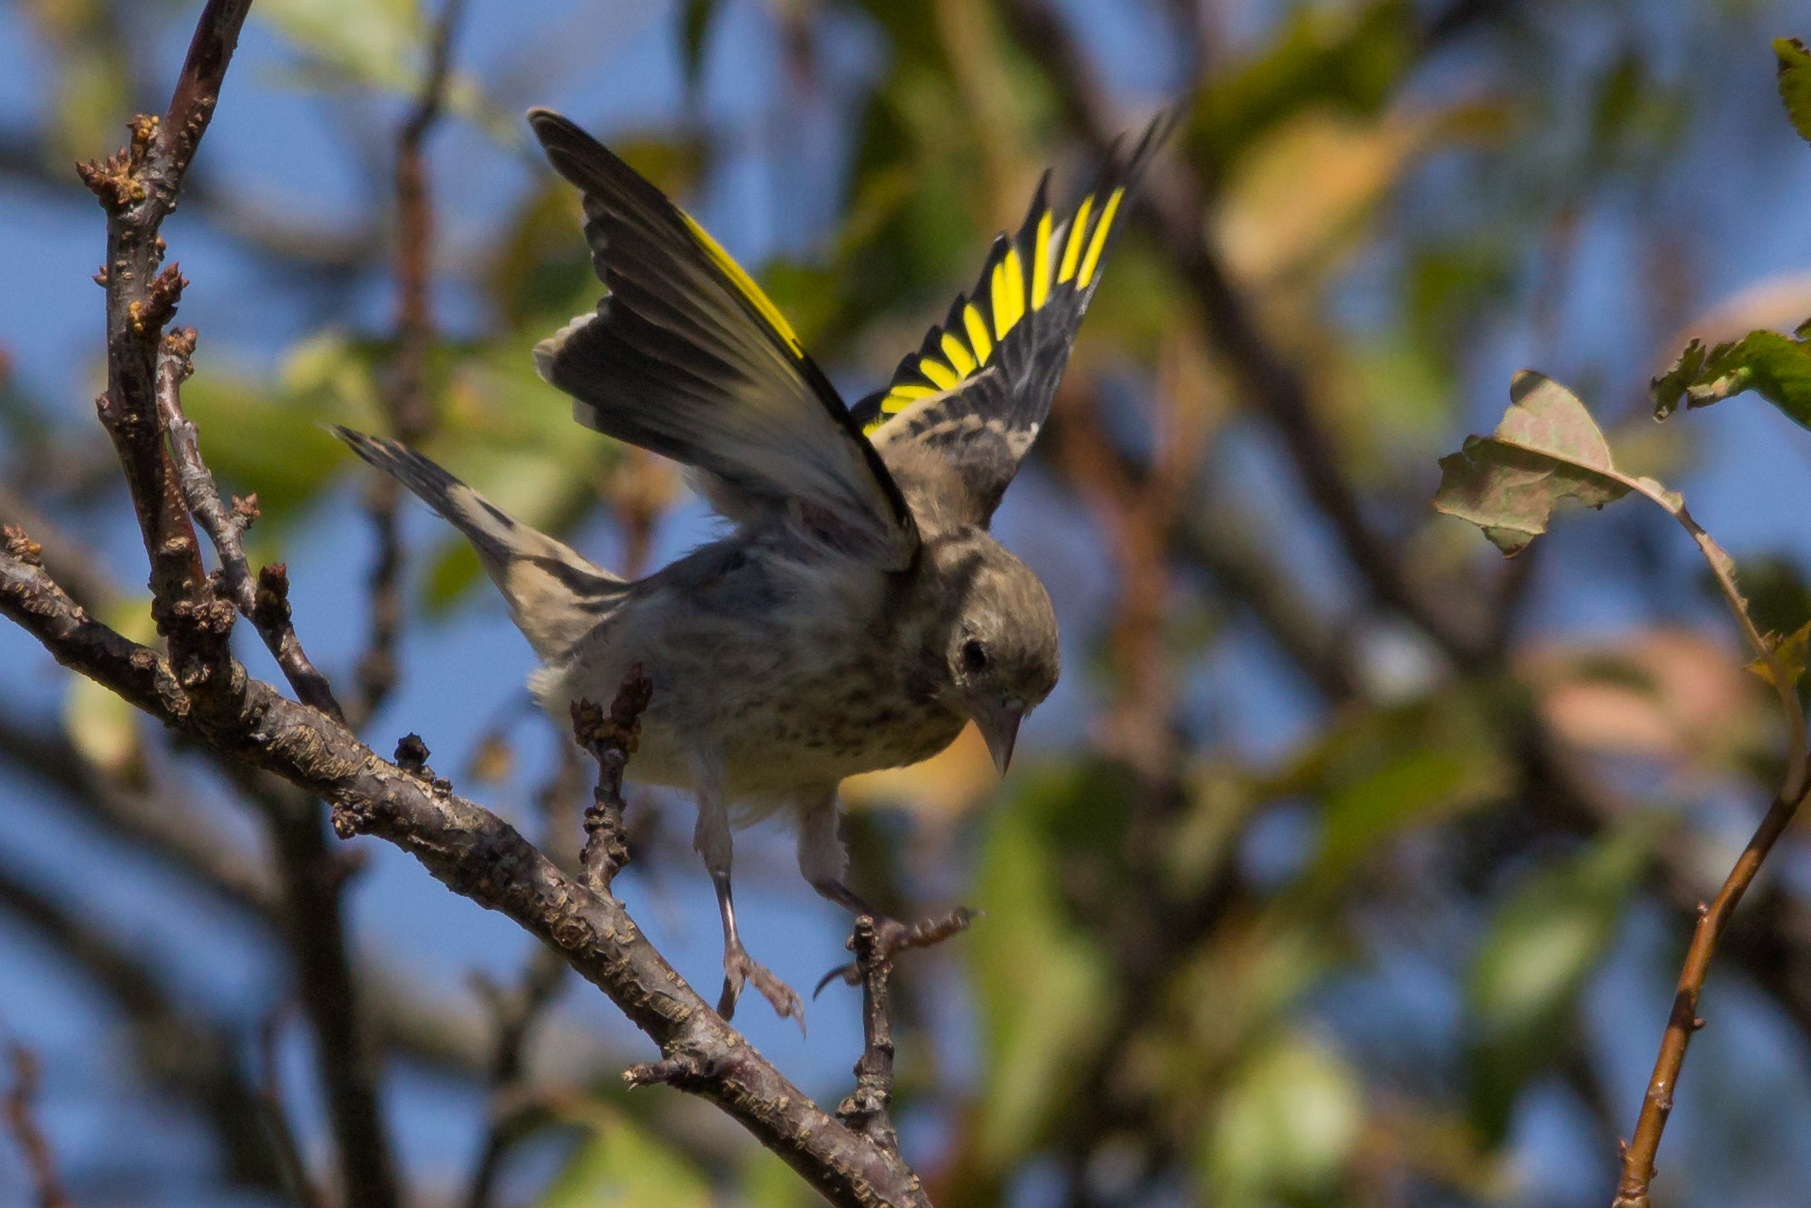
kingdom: Animalia
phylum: Chordata
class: Aves
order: Passeriformes
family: Fringillidae
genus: Carduelis
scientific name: Carduelis carduelis
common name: European goldfinch
